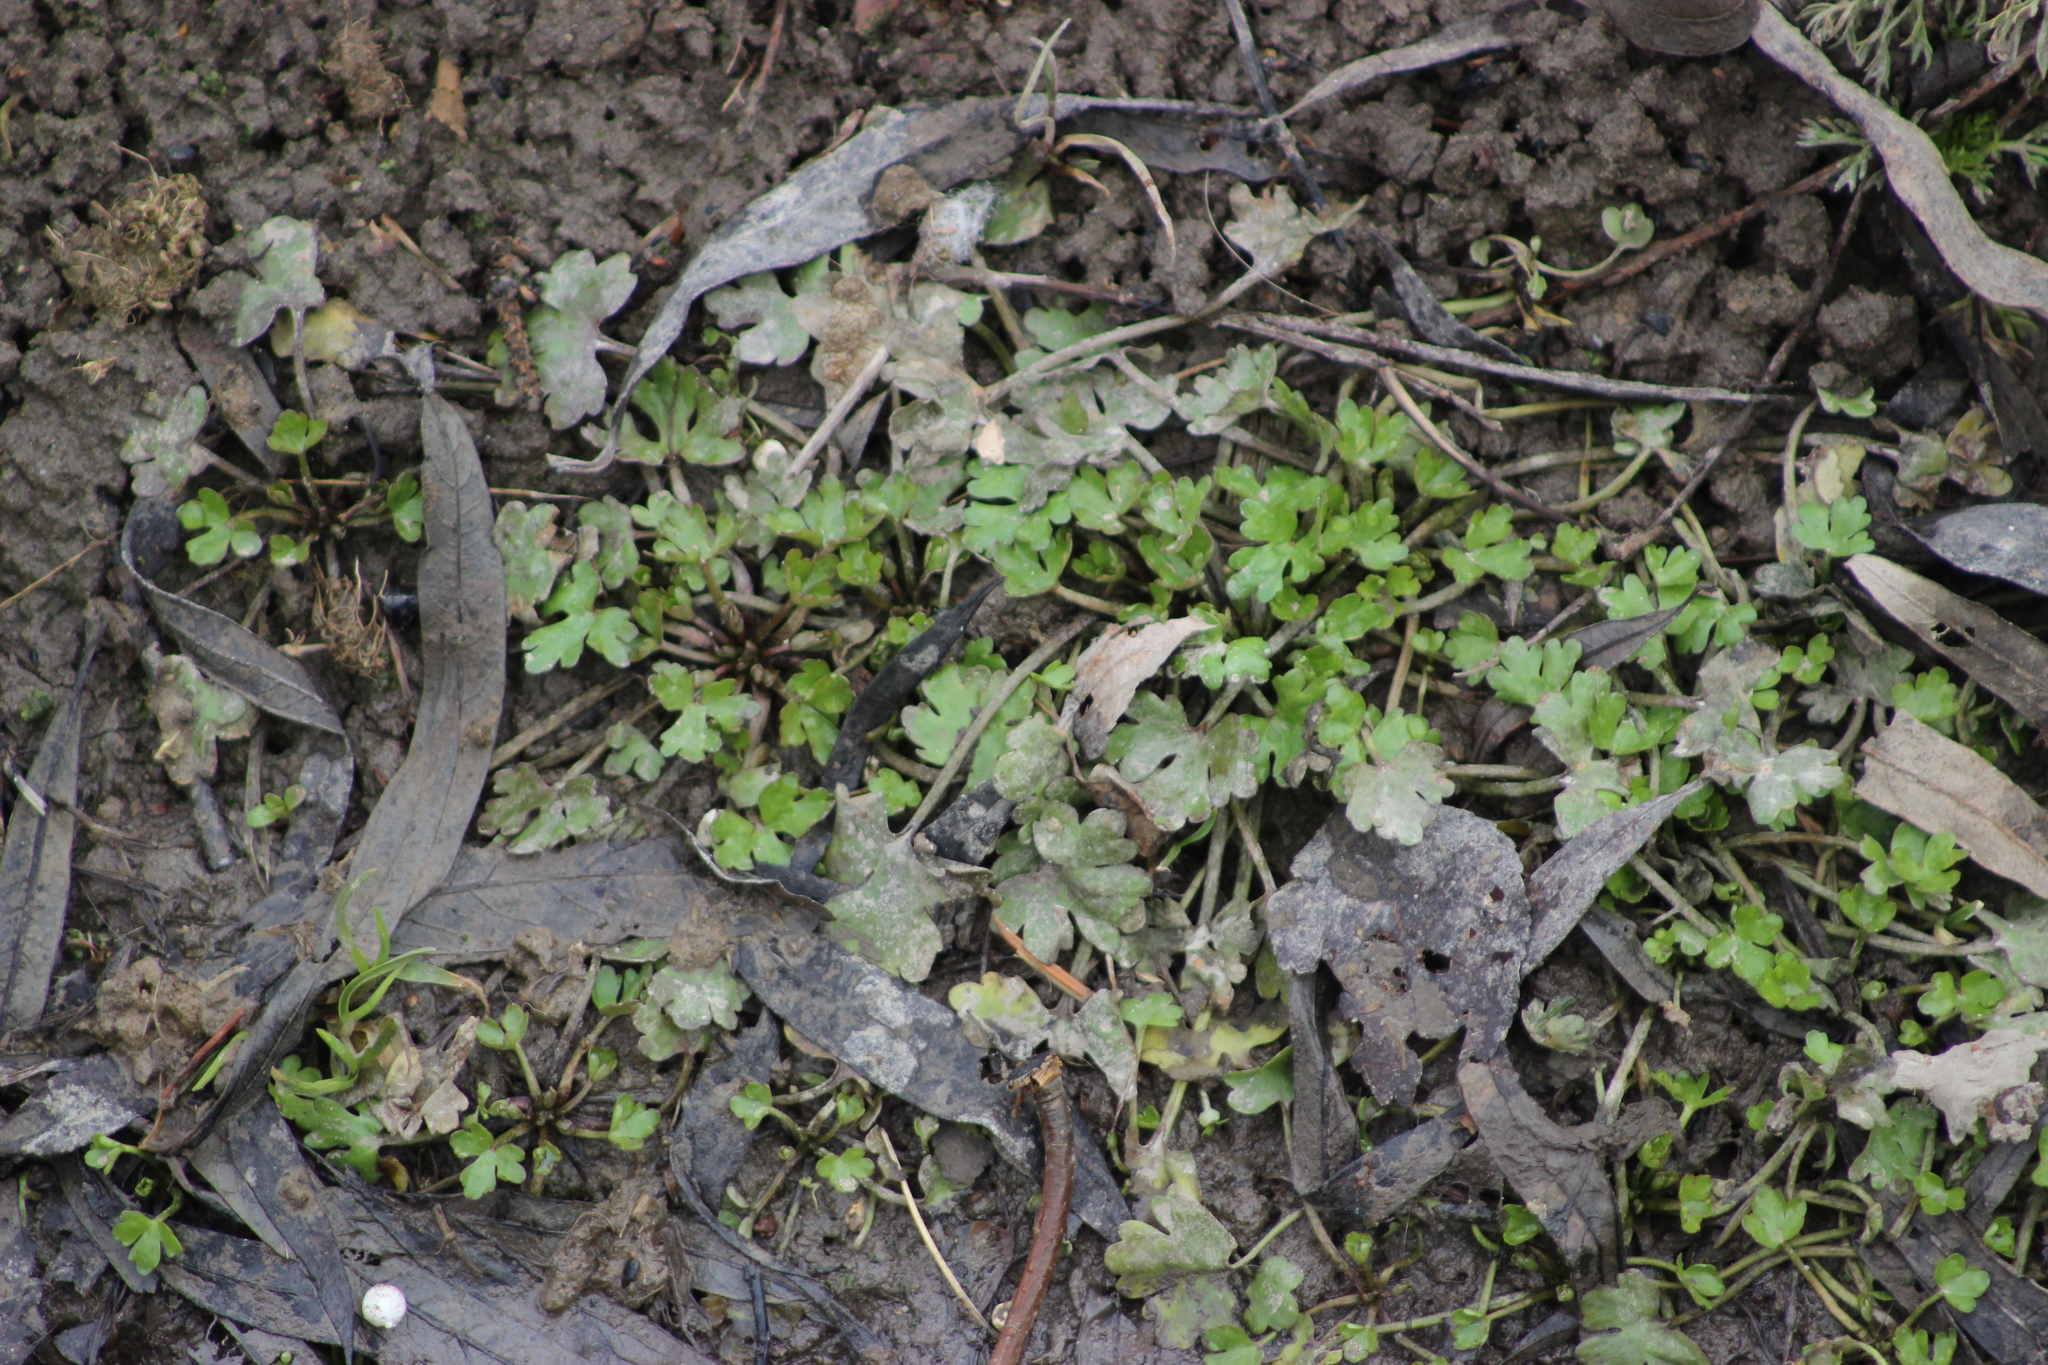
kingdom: Plantae
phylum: Tracheophyta
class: Magnoliopsida
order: Ranunculales
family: Ranunculaceae
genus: Ranunculus
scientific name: Ranunculus propinquus
